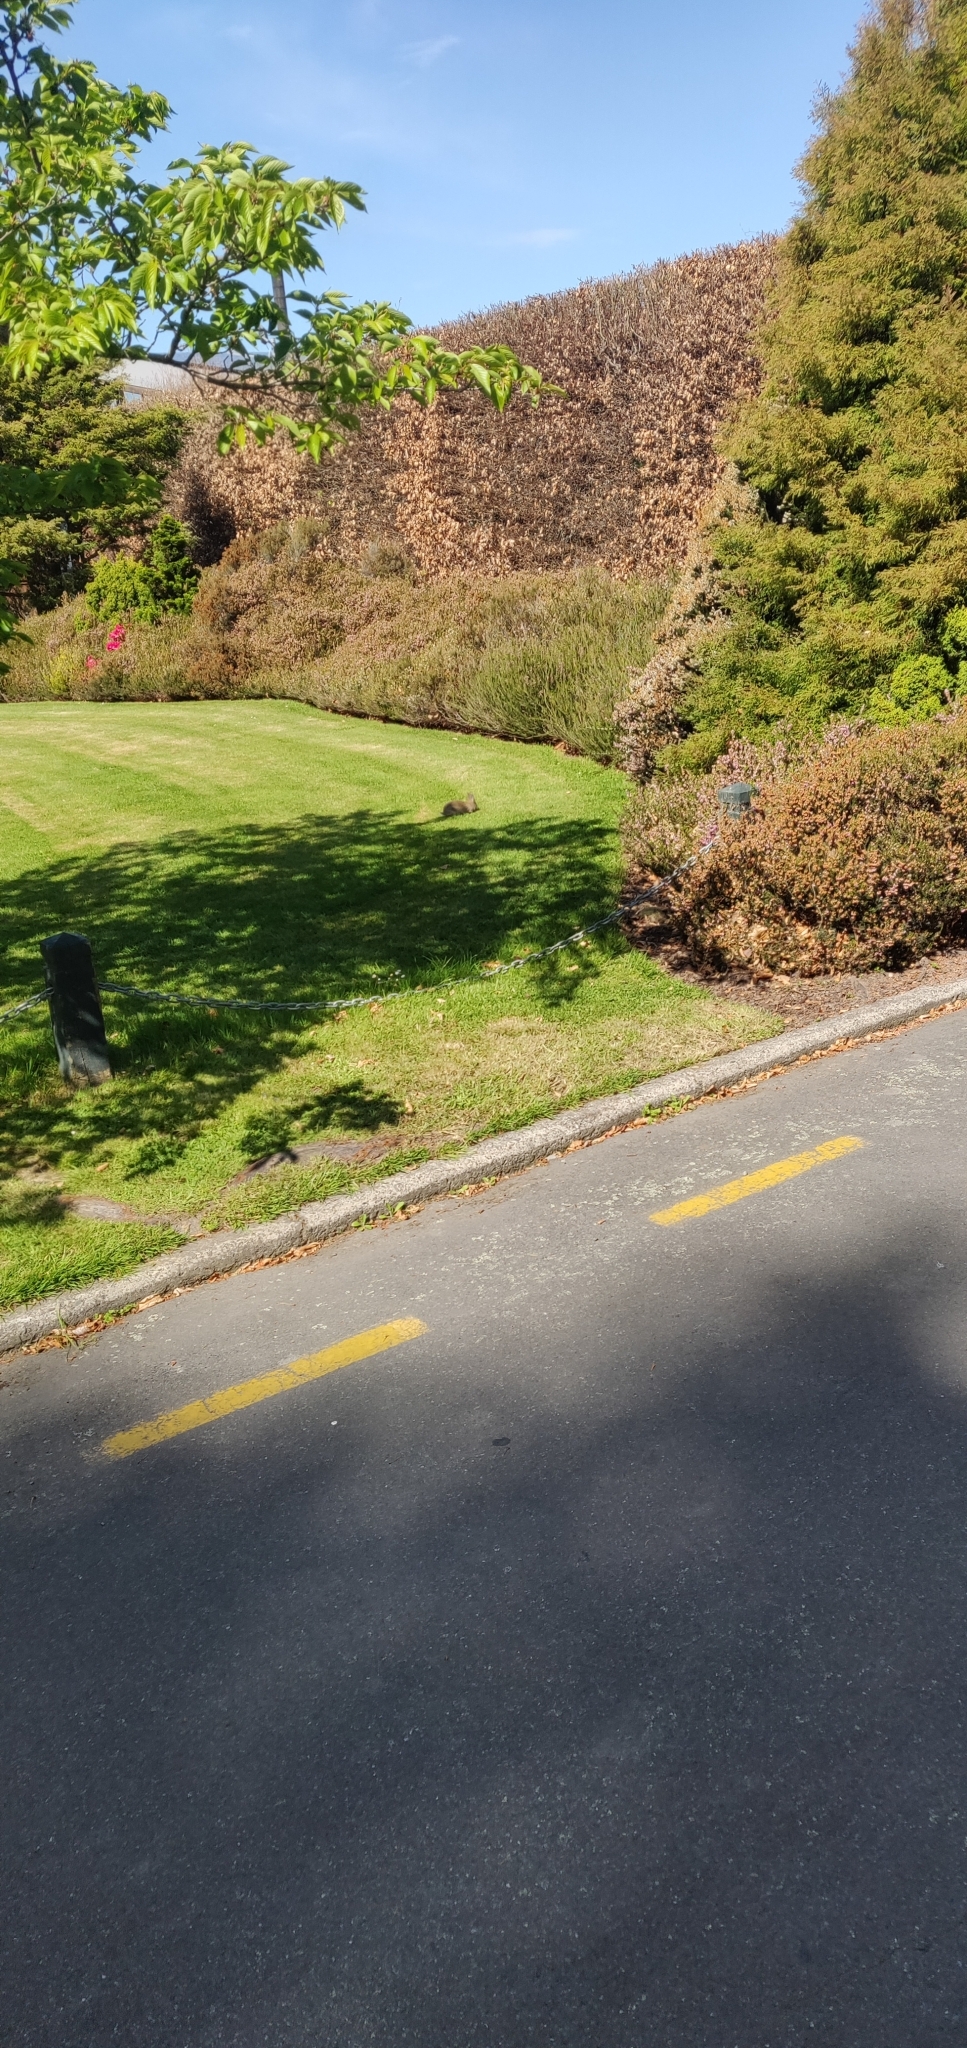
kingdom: Animalia
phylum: Chordata
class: Mammalia
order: Lagomorpha
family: Leporidae
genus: Oryctolagus
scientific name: Oryctolagus cuniculus
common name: European rabbit
